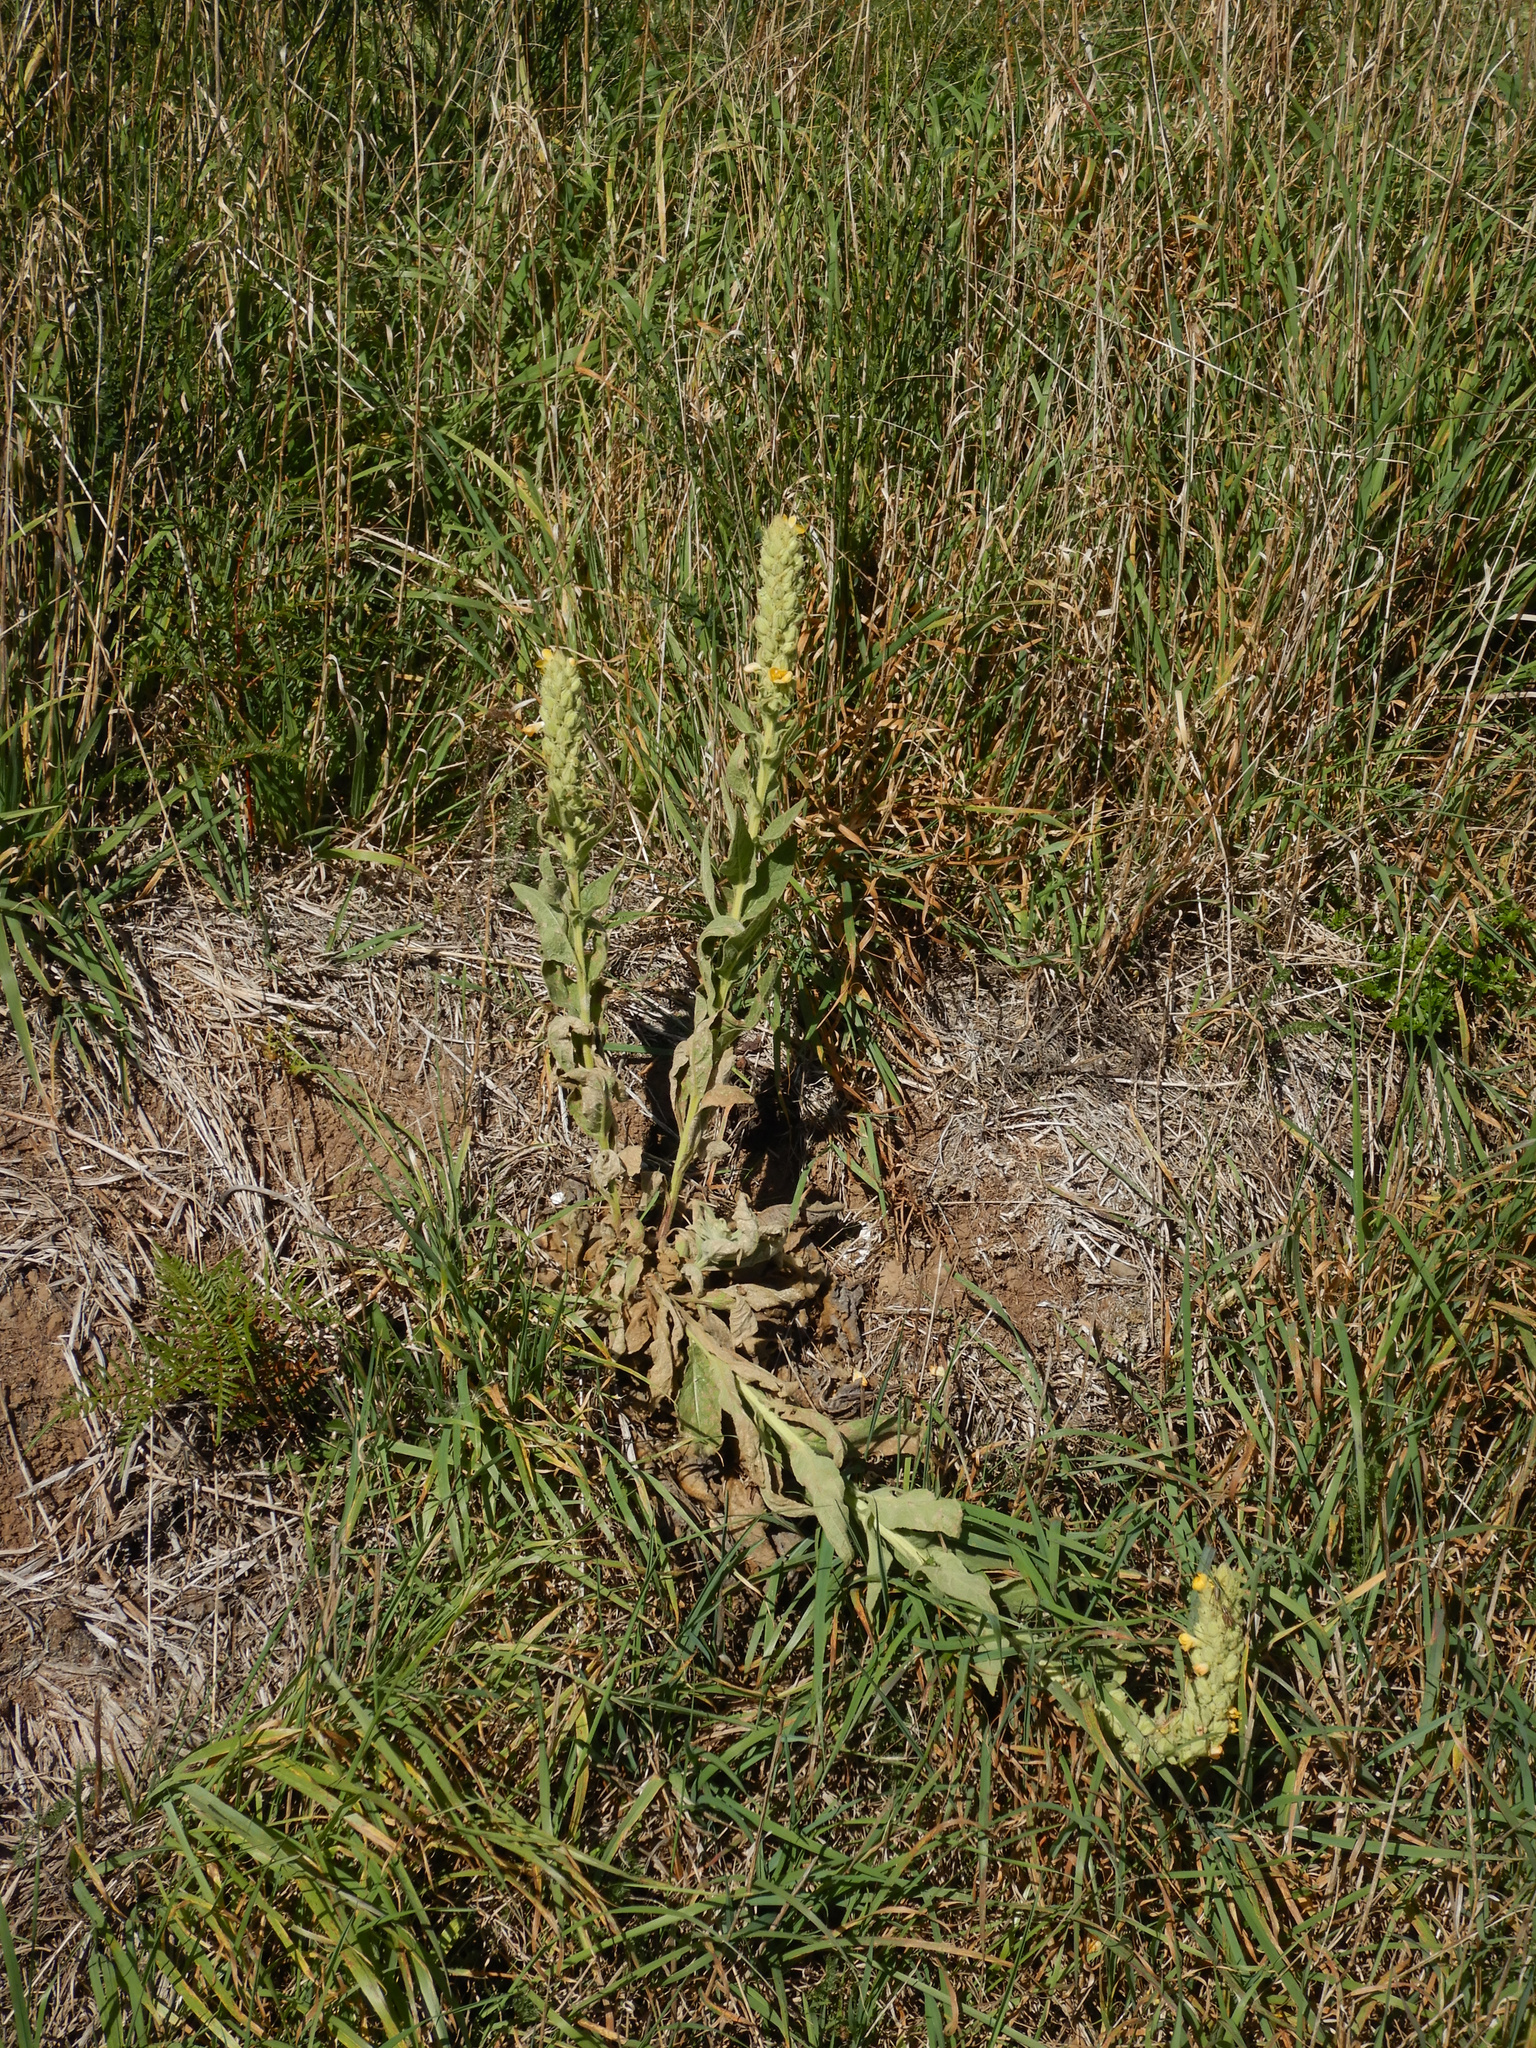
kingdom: Plantae
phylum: Tracheophyta
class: Magnoliopsida
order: Lamiales
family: Scrophulariaceae
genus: Verbascum
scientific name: Verbascum thapsus
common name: Common mullein
